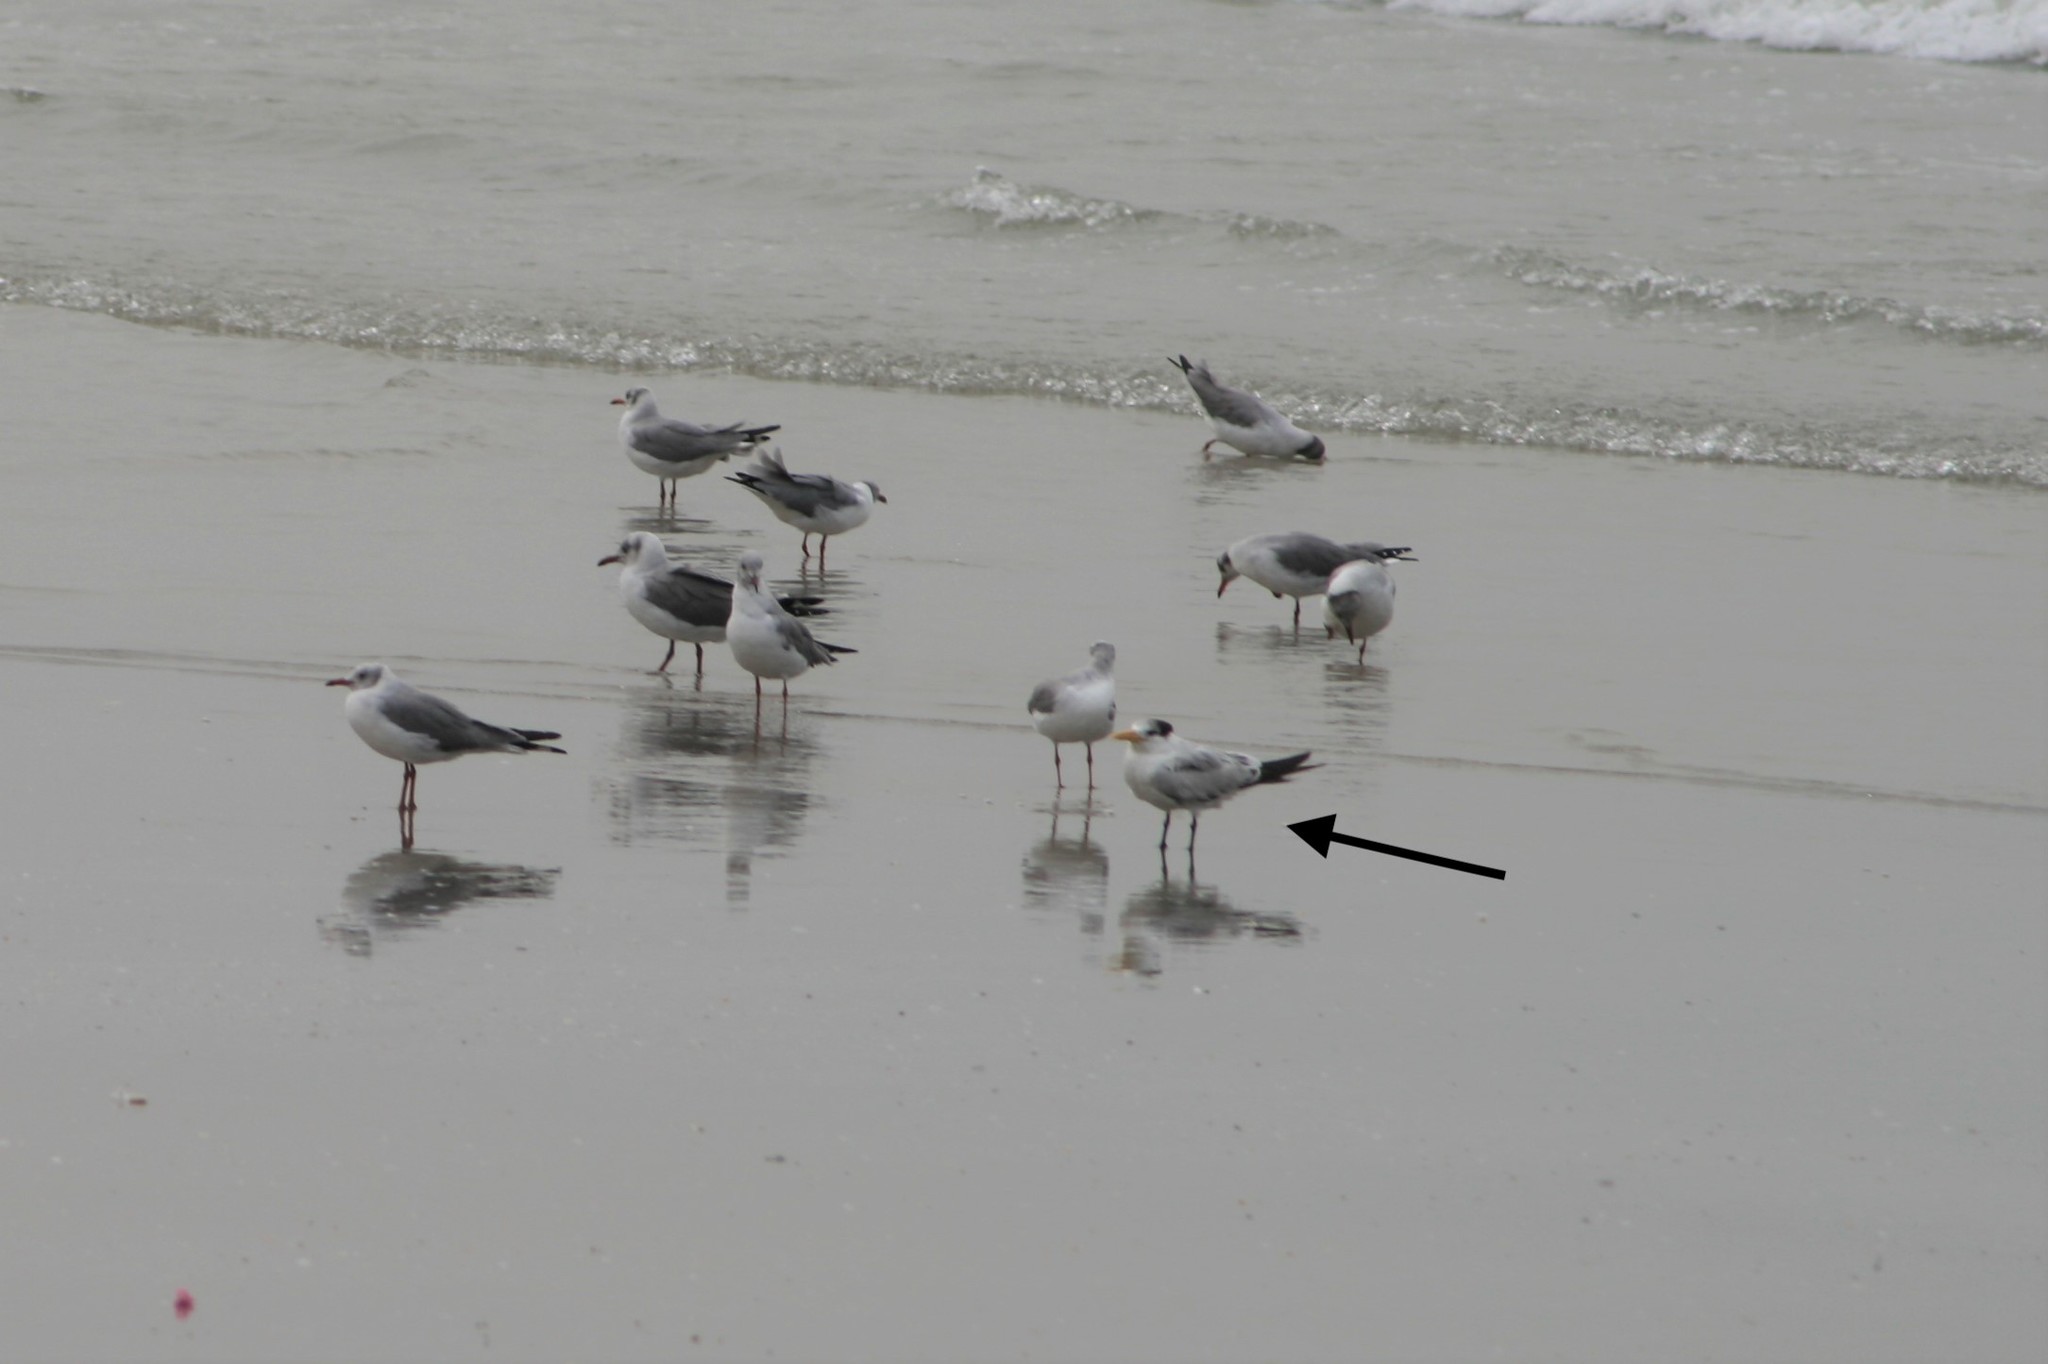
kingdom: Animalia
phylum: Chordata
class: Aves
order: Charadriiformes
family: Laridae
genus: Thalasseus
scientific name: Thalasseus albididorsalis
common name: West african crested tern
